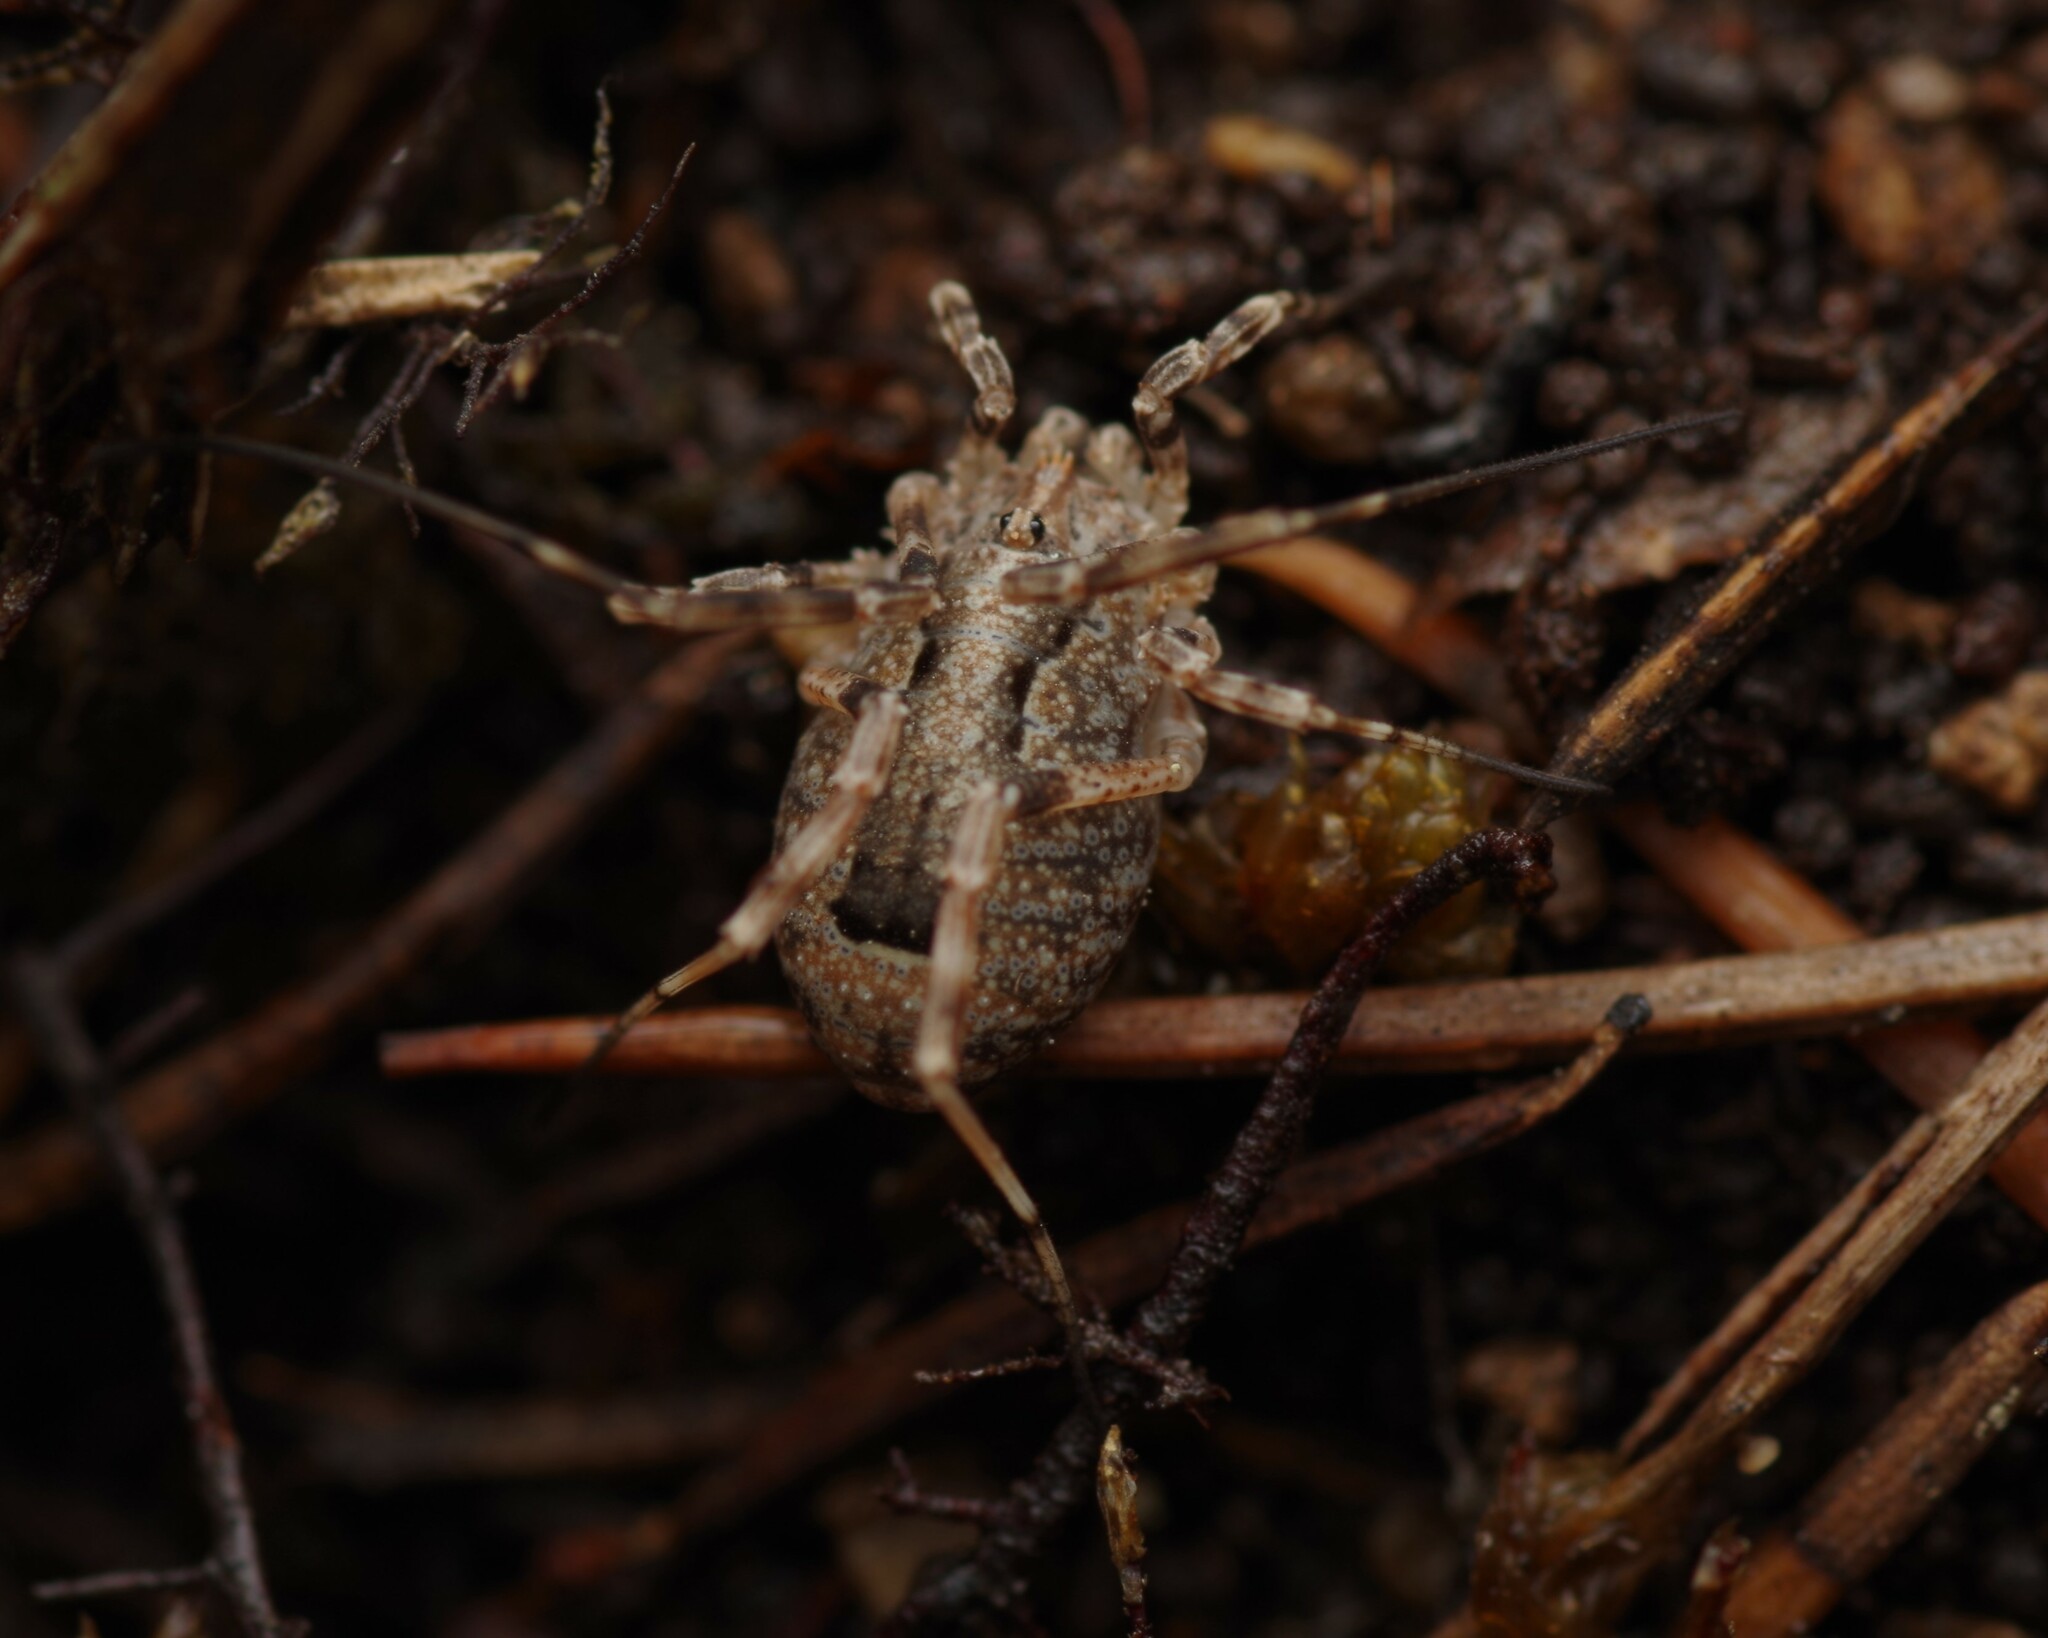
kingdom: Animalia
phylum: Arthropoda
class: Arachnida
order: Opiliones
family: Phalangiidae
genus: Odiellus
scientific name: Odiellus spinosus
